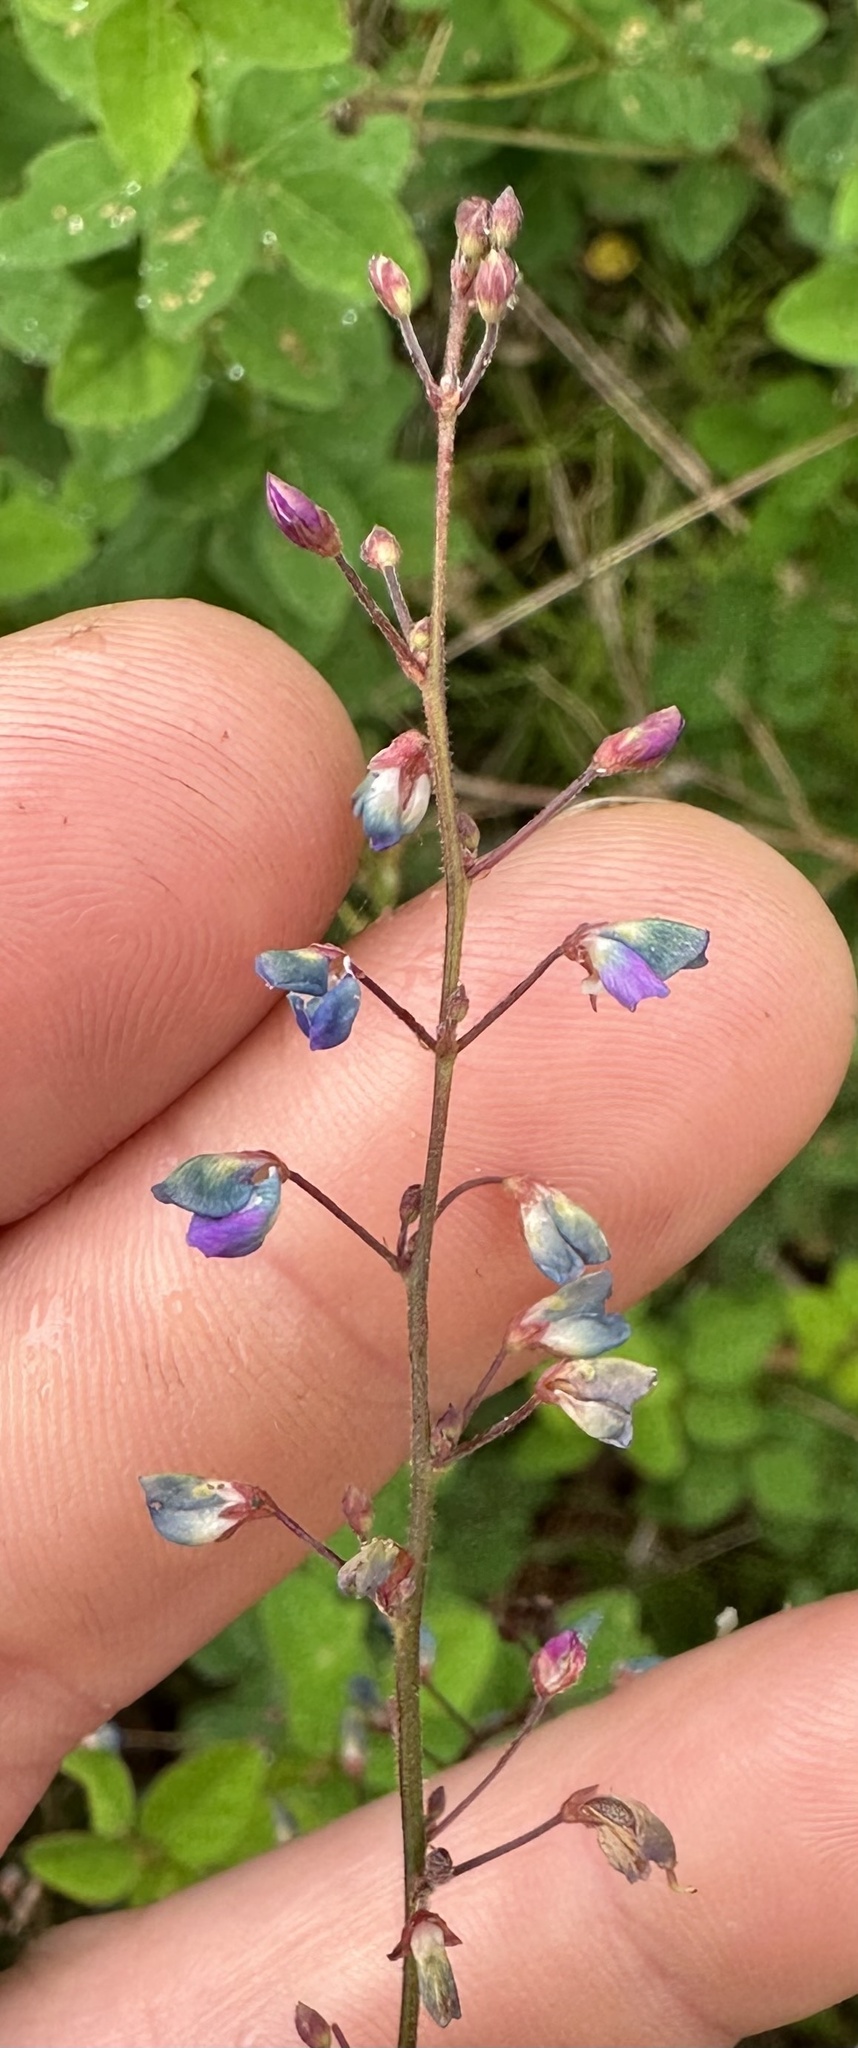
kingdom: Plantae
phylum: Tracheophyta
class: Magnoliopsida
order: Fabales
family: Fabaceae
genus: Desmodium
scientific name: Desmodium ciliare
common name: Hairy small-leaf ticktrefoil
